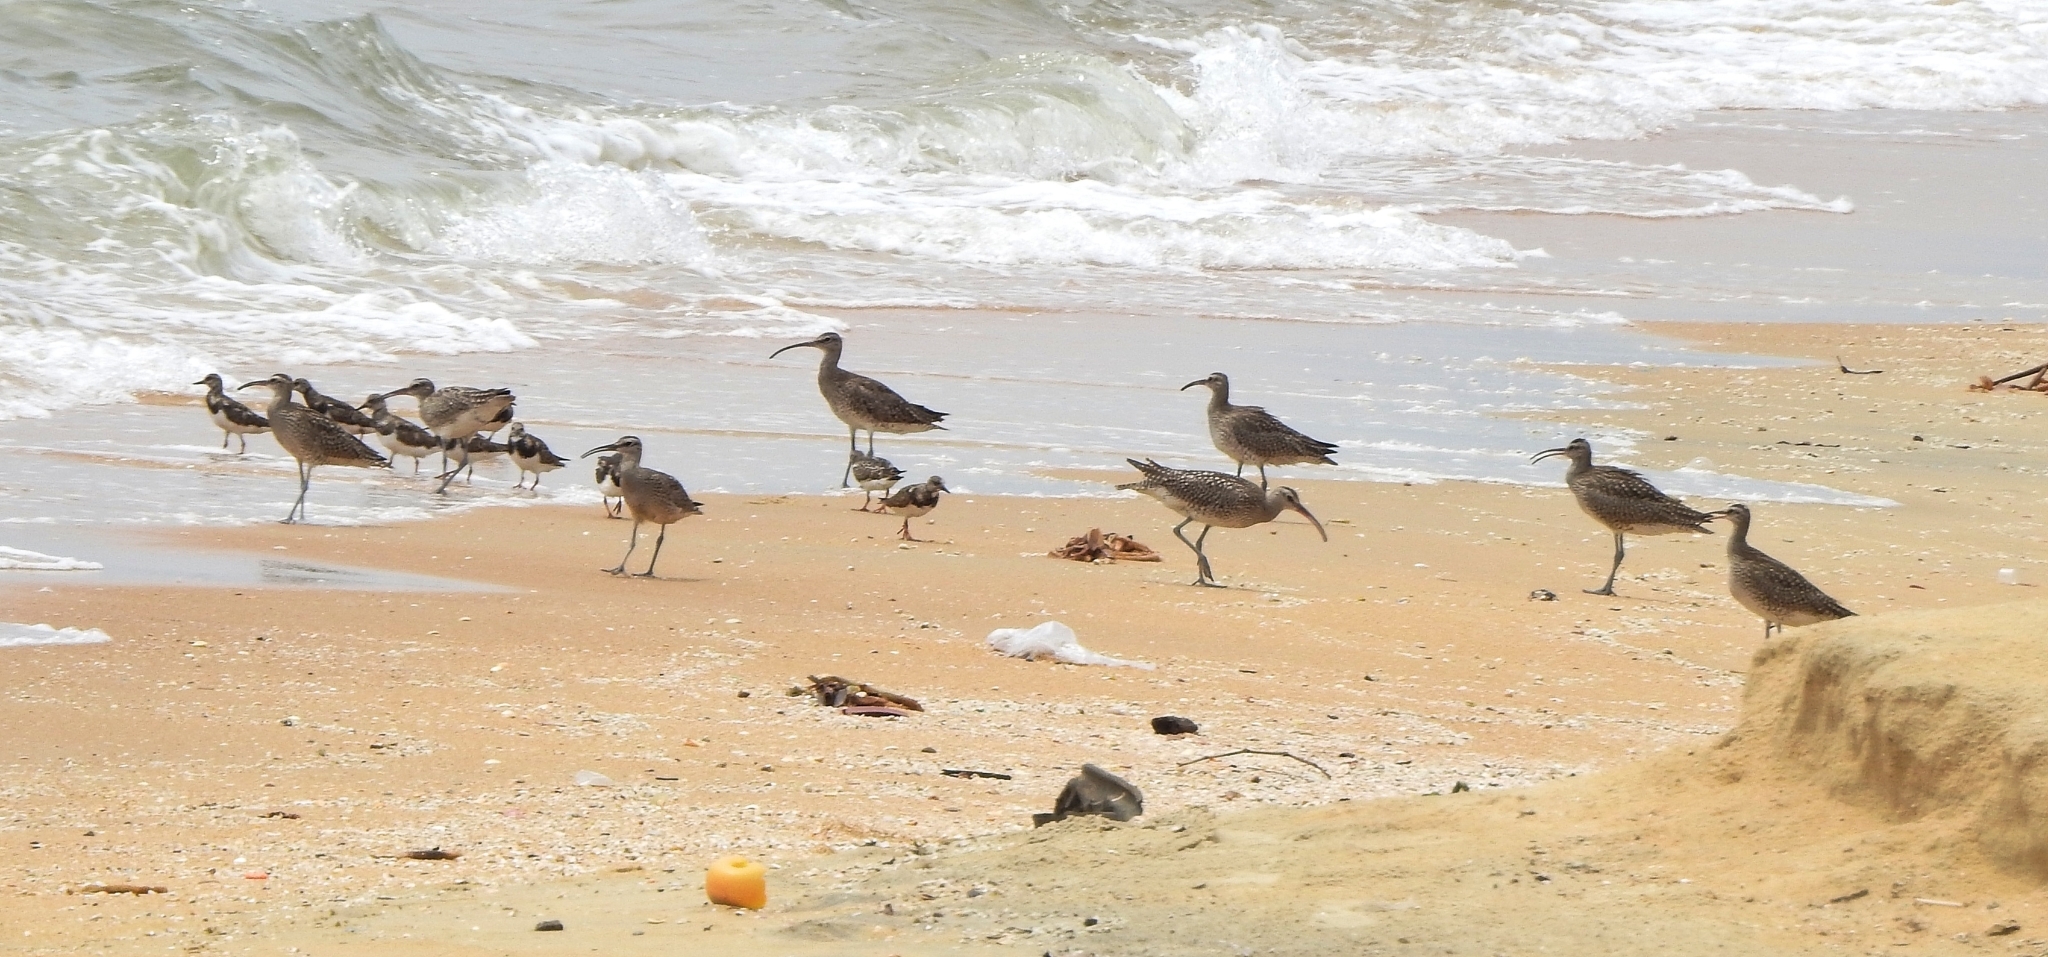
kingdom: Animalia
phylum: Chordata
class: Aves
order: Charadriiformes
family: Scolopacidae
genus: Numenius
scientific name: Numenius phaeopus
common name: Whimbrel
